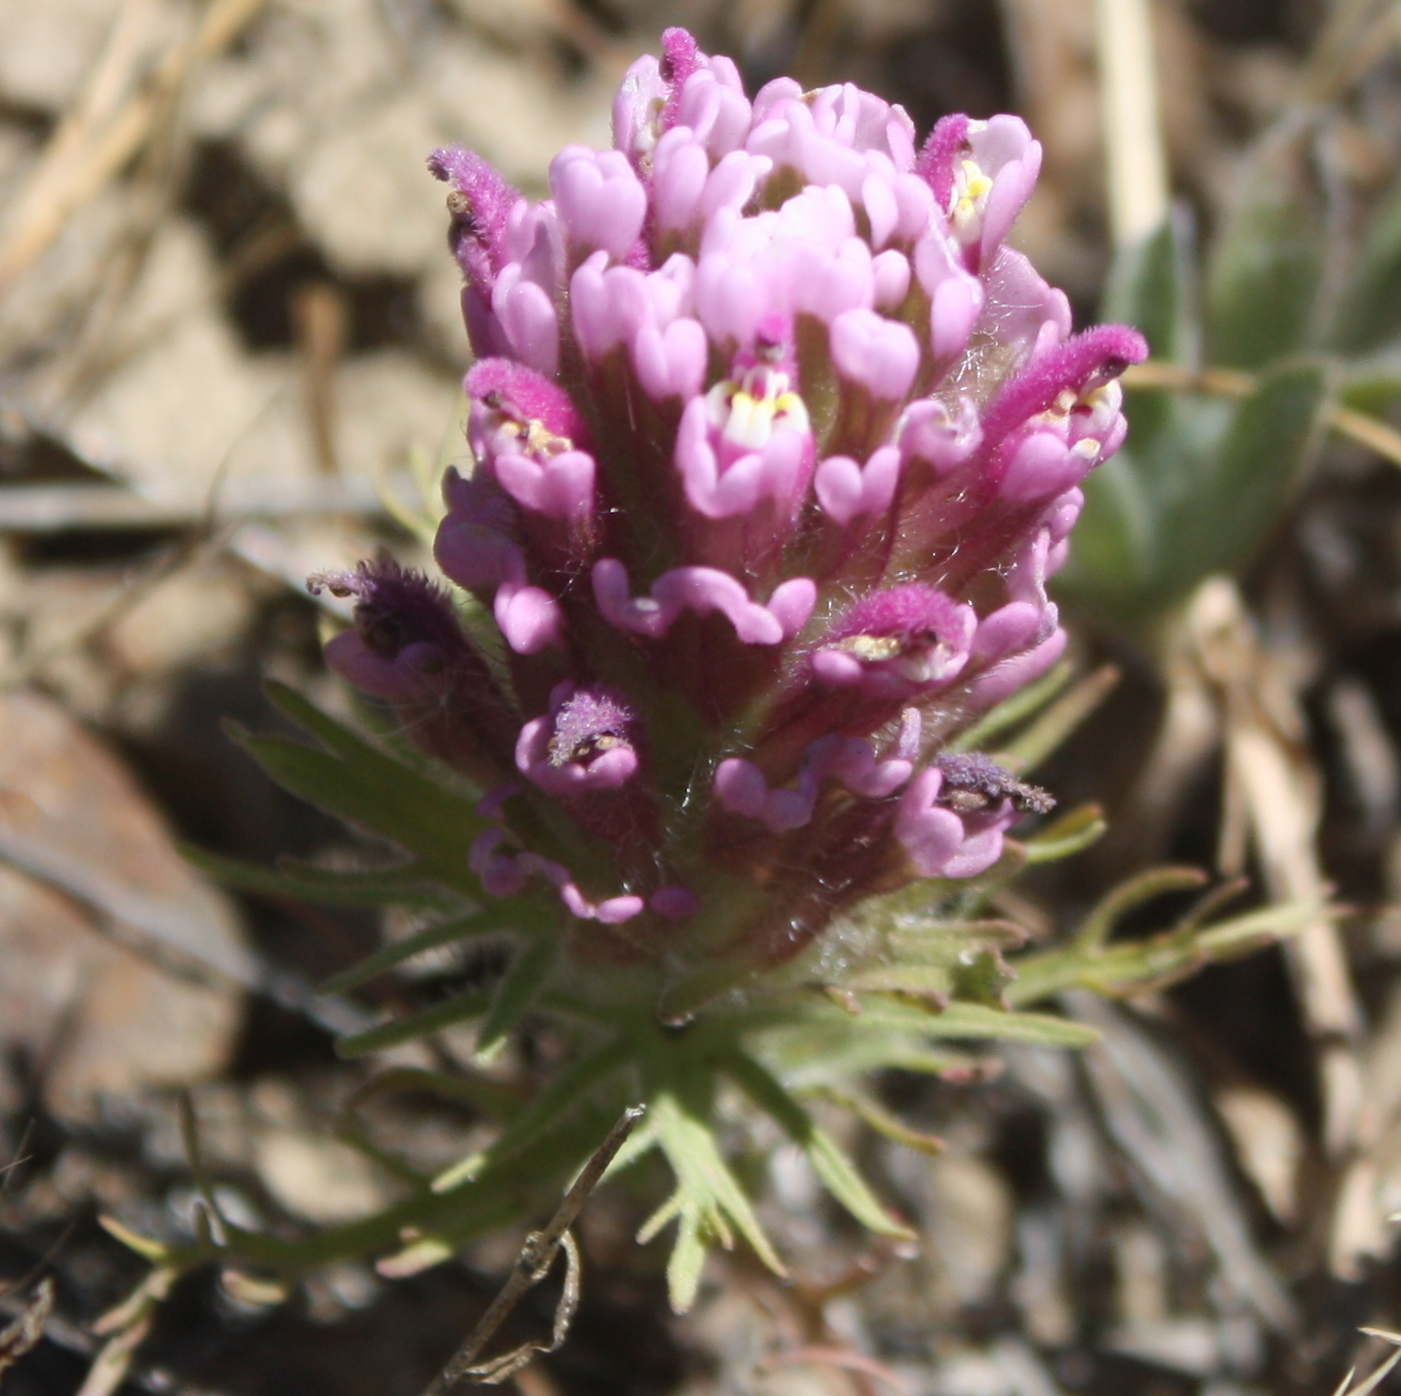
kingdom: Plantae
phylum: Tracheophyta
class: Magnoliopsida
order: Lamiales
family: Orobanchaceae
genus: Castilleja
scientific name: Castilleja exserta
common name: Purple owl-clover
